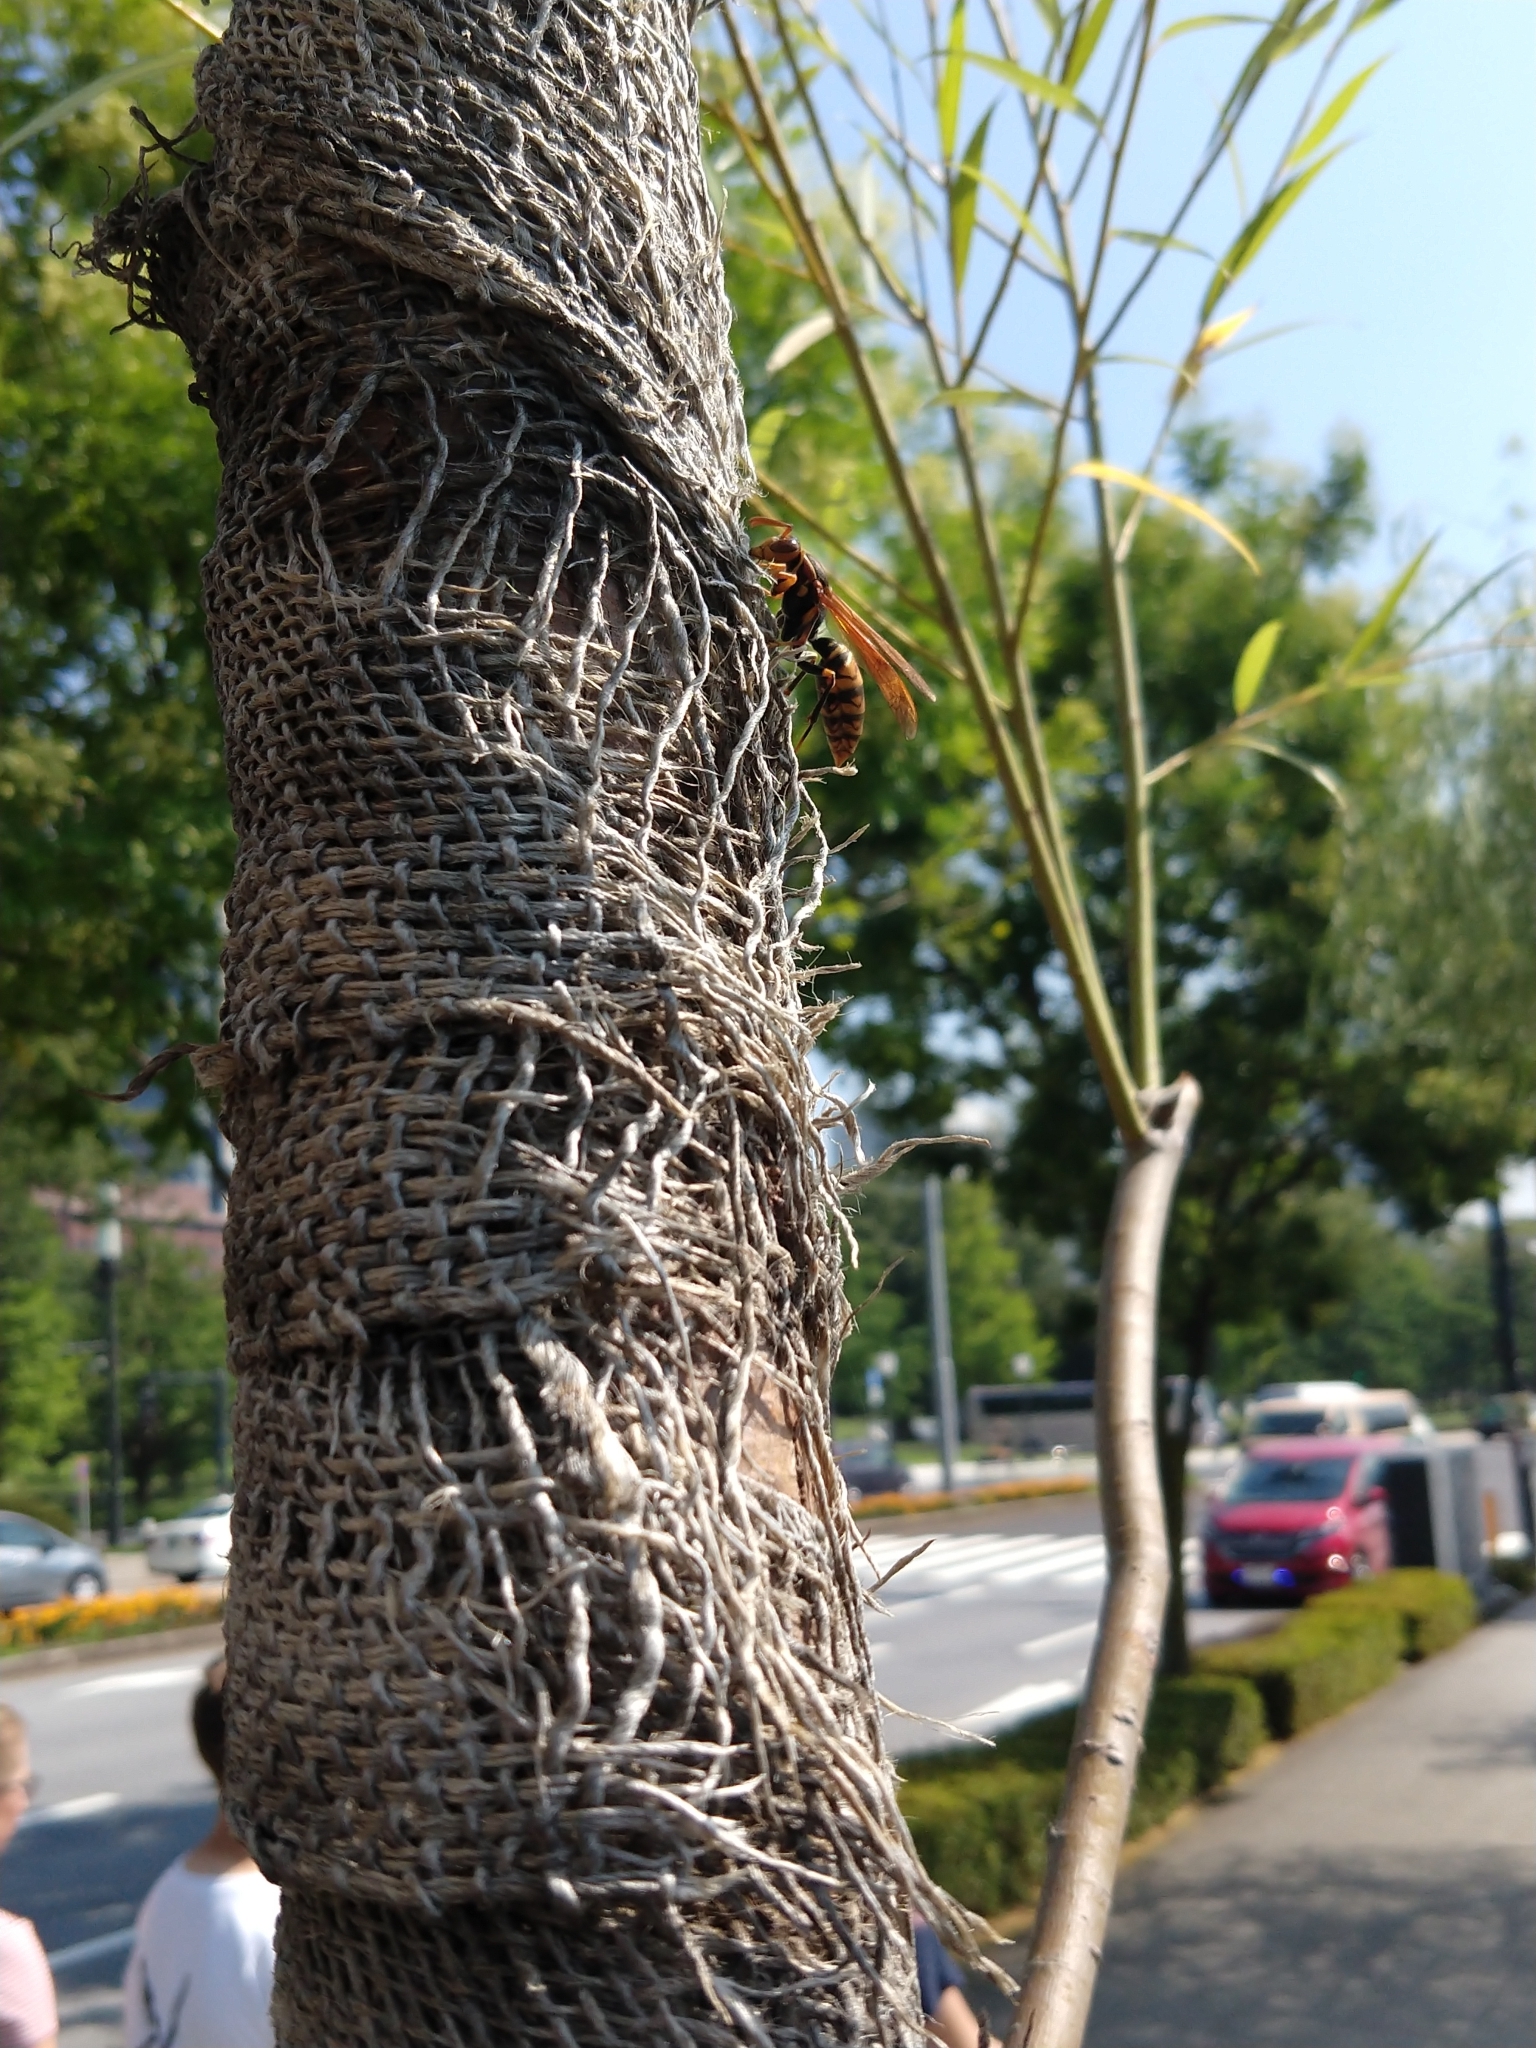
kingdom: Animalia
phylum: Arthropoda
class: Insecta
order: Hymenoptera
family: Eumenidae
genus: Polistes
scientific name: Polistes jokahamae
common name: Paper wasp
